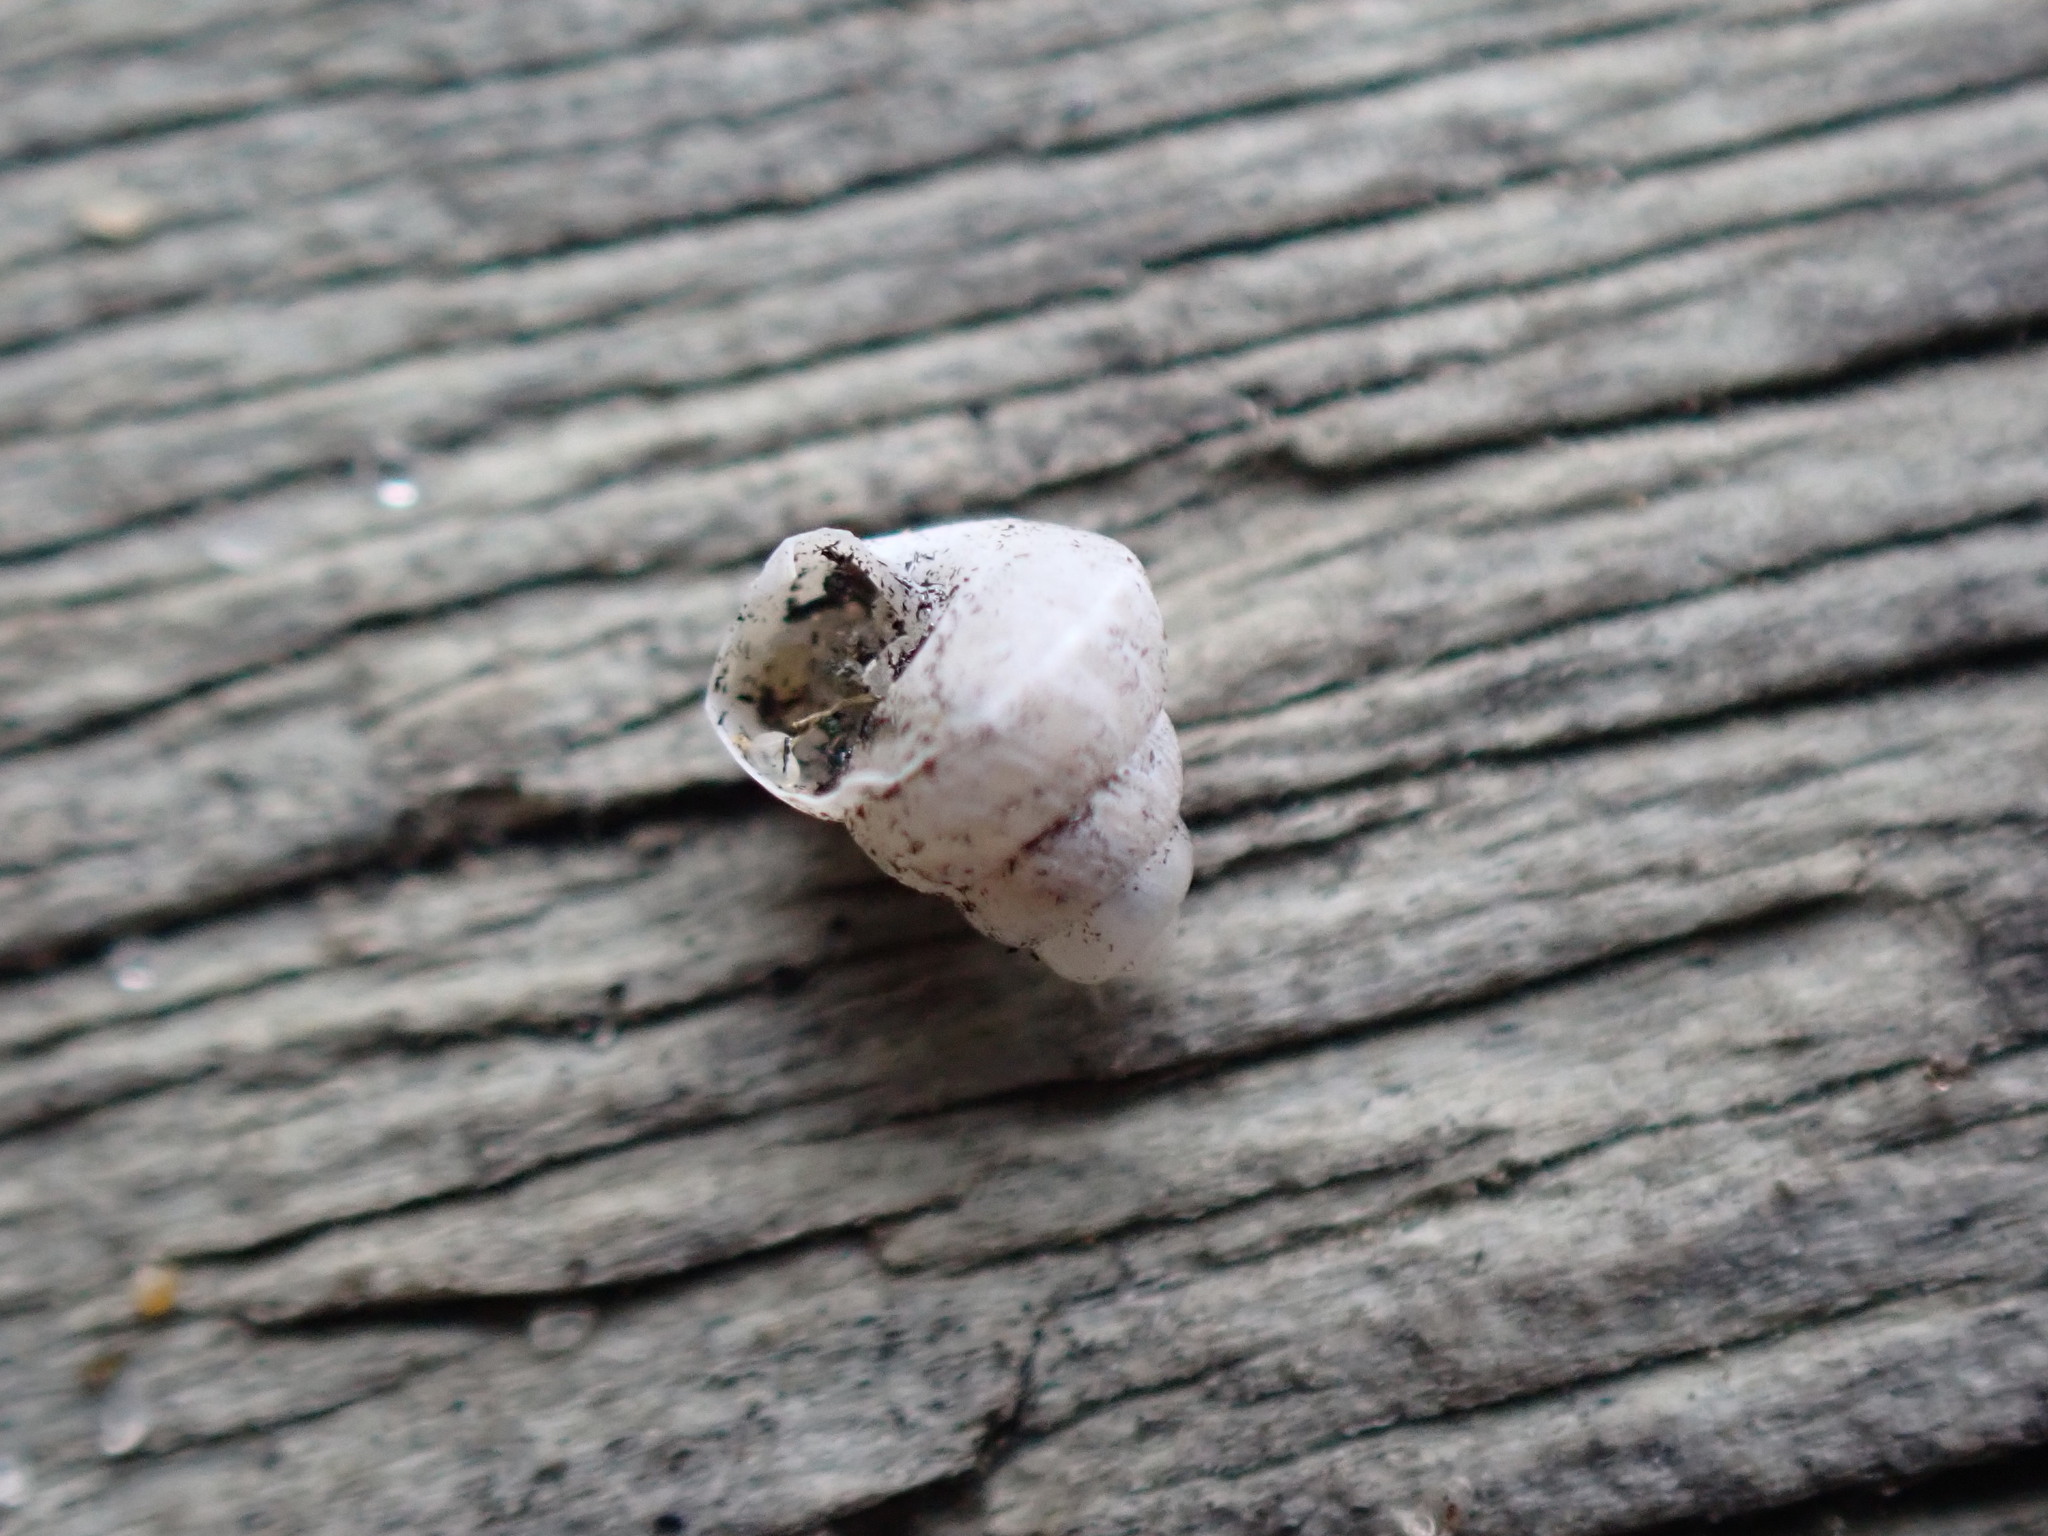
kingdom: Animalia
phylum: Mollusca
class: Gastropoda
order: Stylommatophora
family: Geomitridae
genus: Cochlicella
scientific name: Cochlicella barbara
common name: Potbellied helicellid
